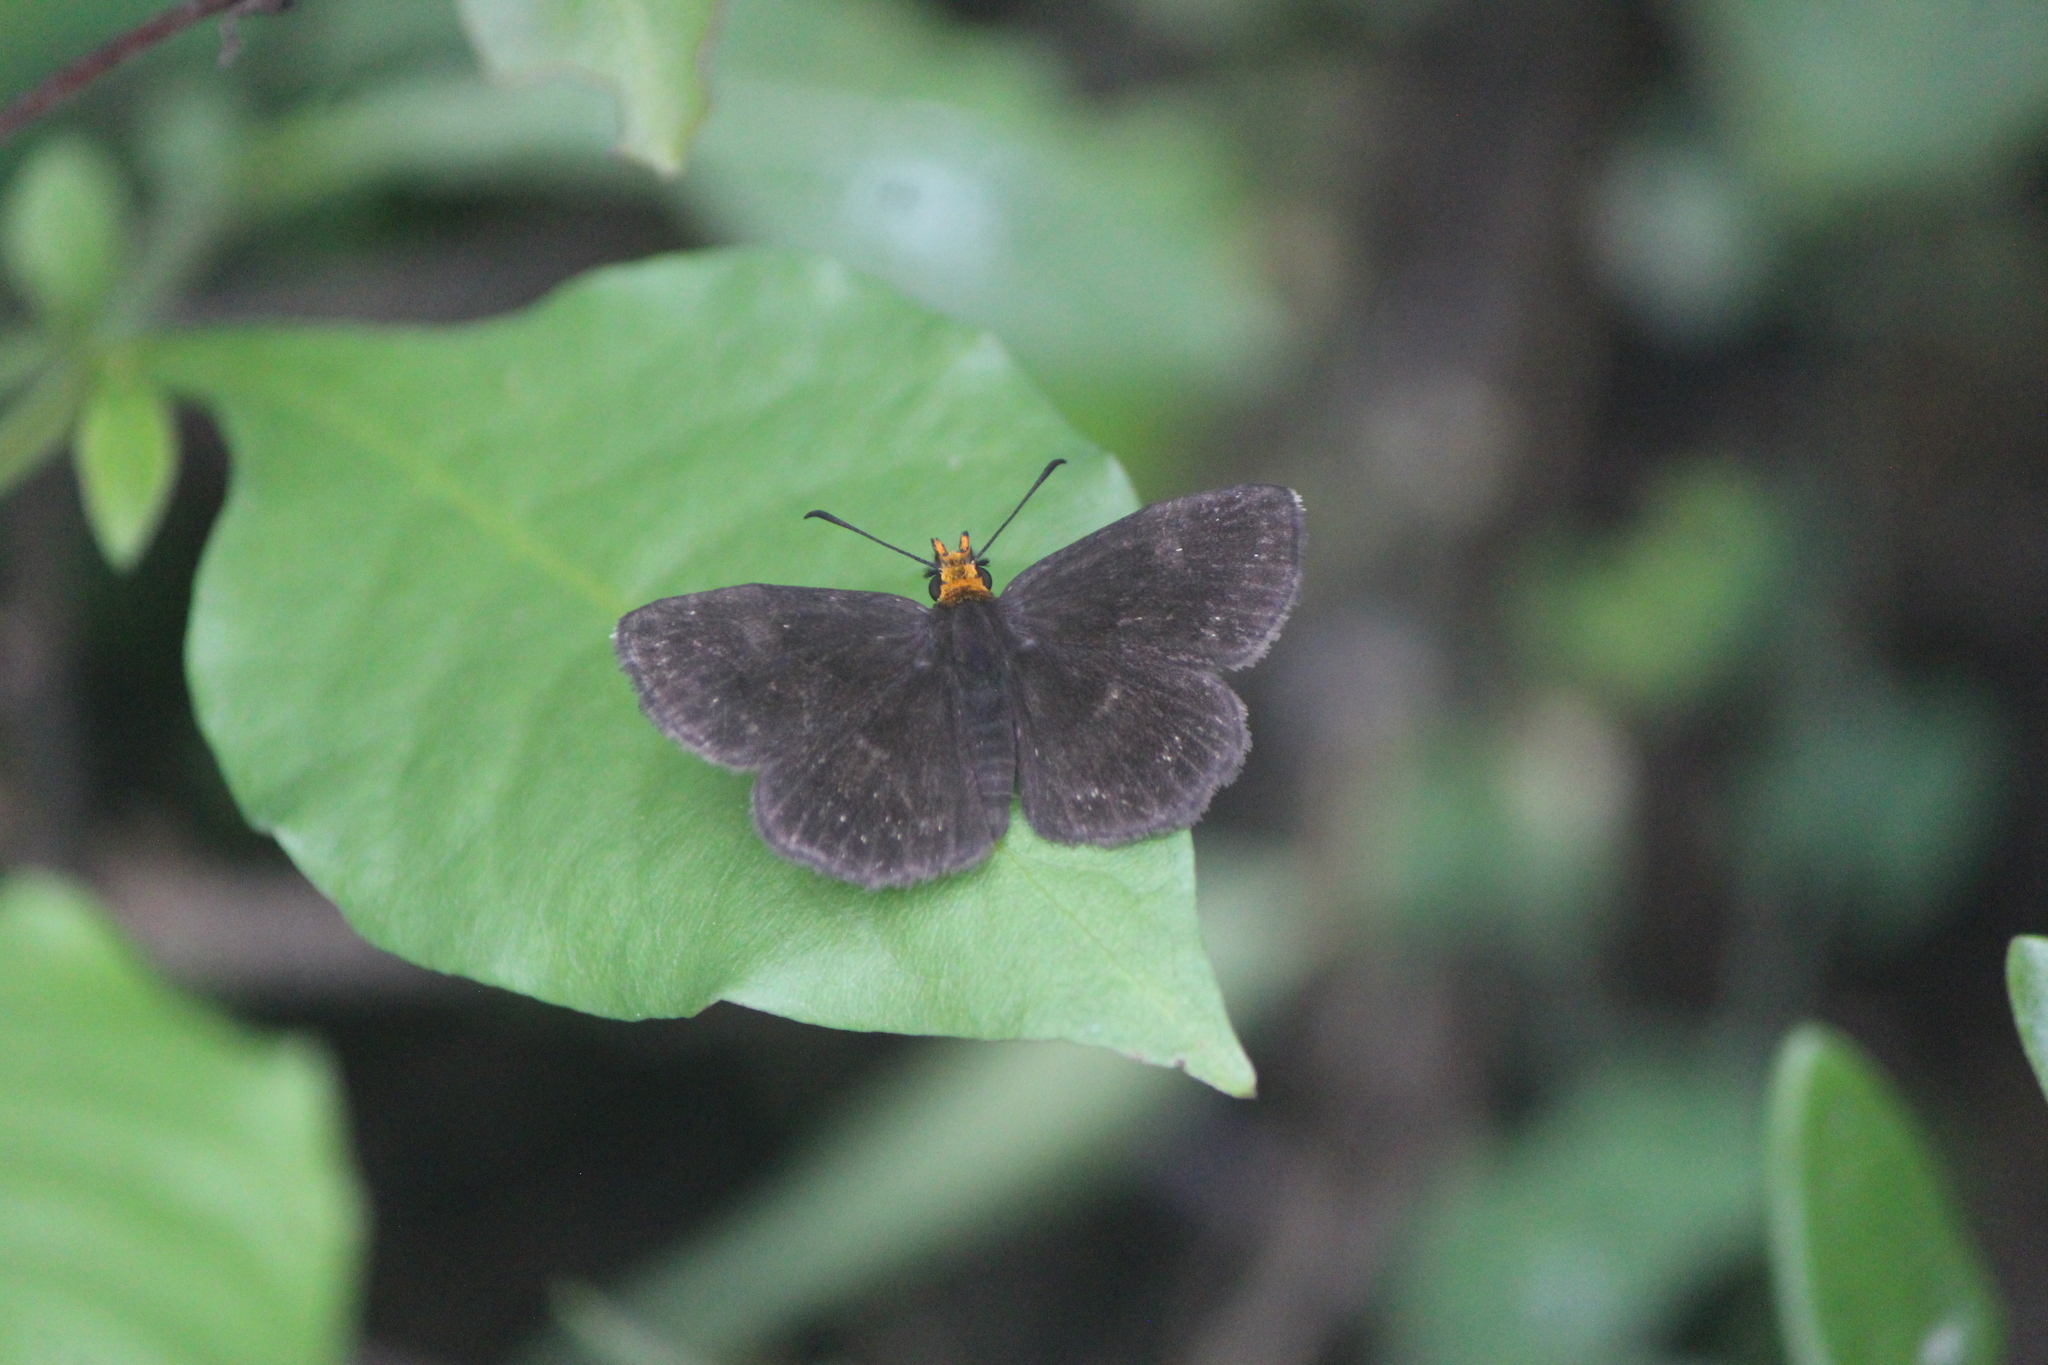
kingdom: Animalia
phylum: Arthropoda
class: Insecta
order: Lepidoptera
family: Hesperiidae
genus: Staphylus
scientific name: Staphylus ceos
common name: Golden-headed scallopwing
